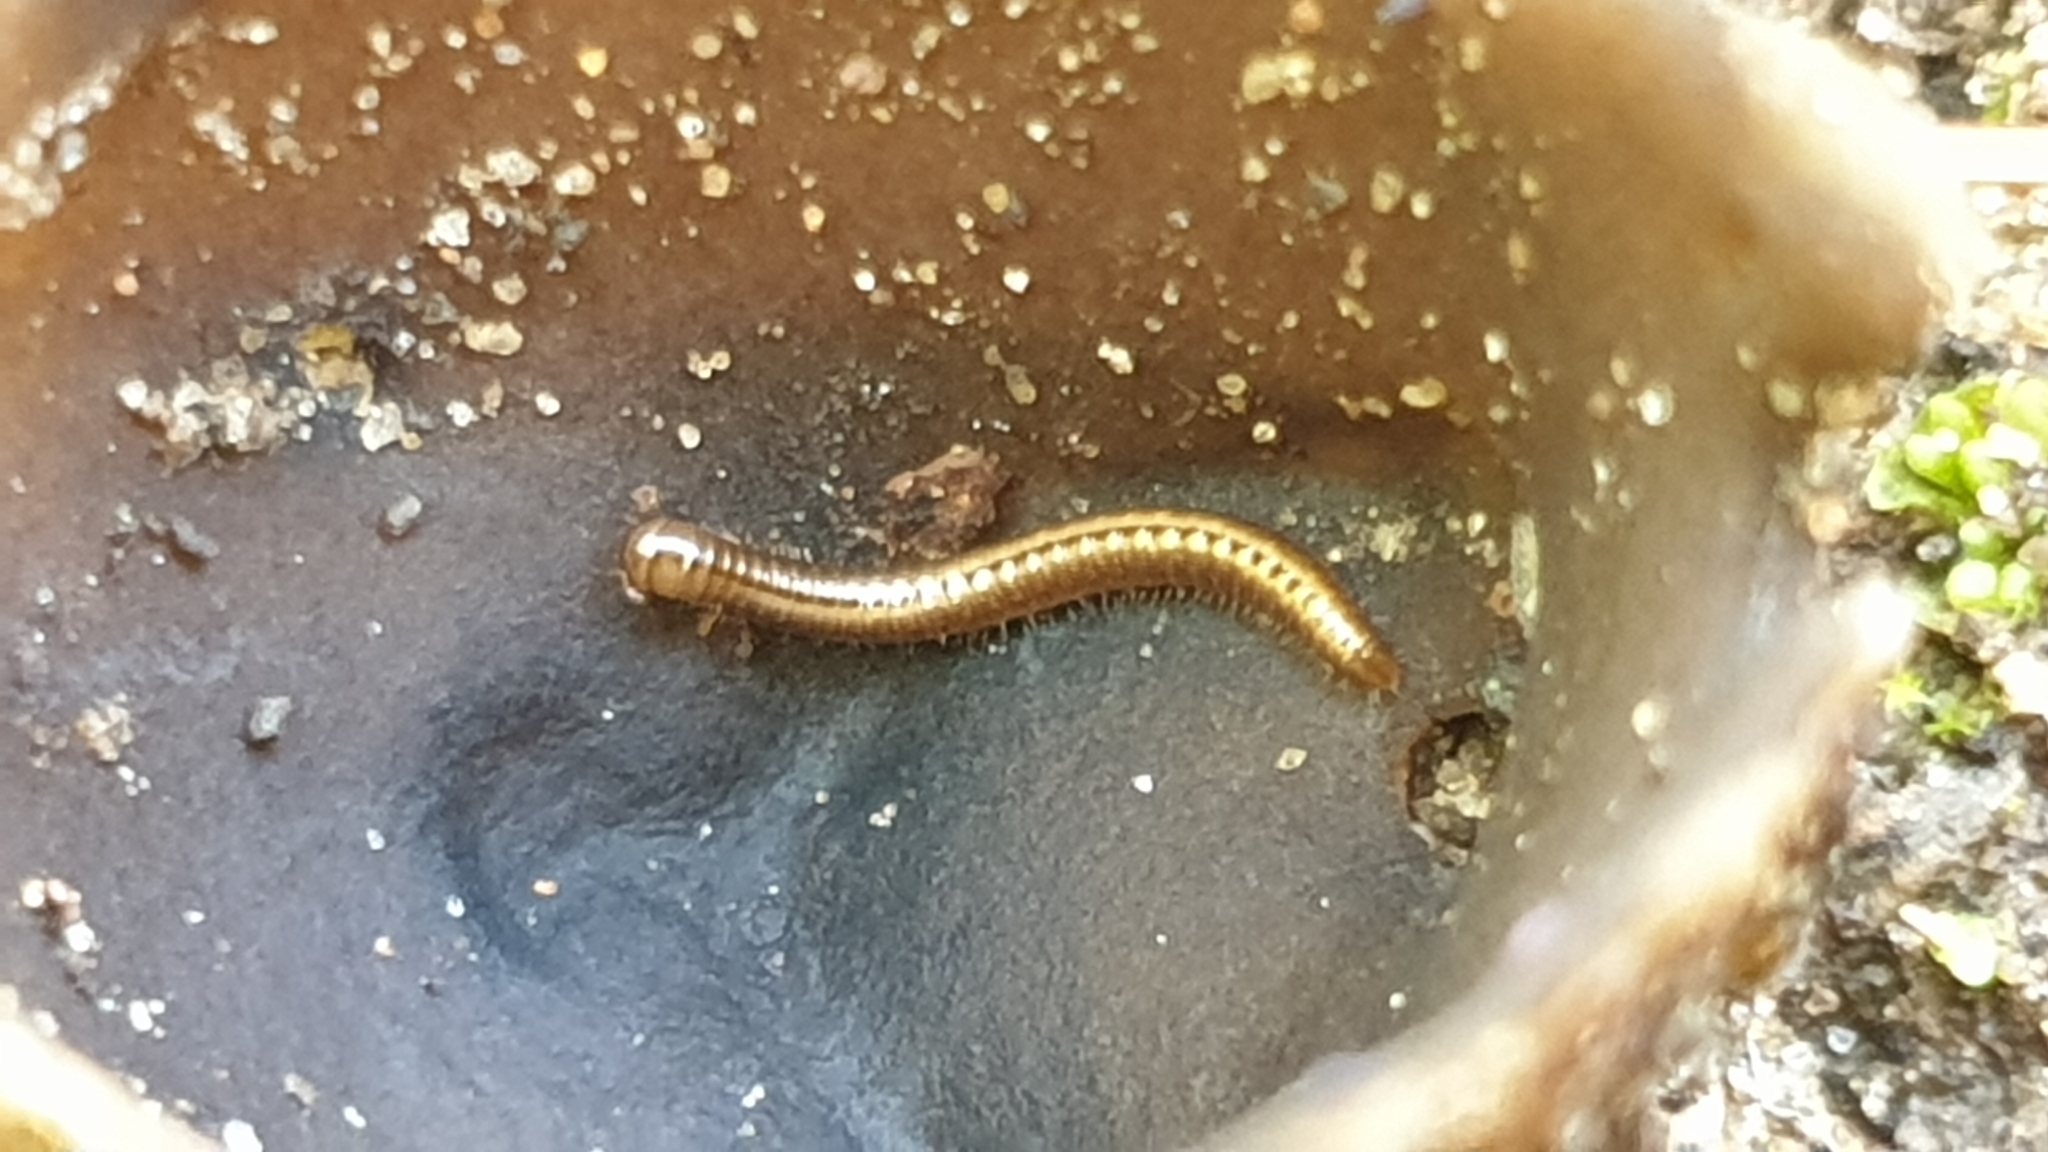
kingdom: Animalia
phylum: Arthropoda
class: Diplopoda
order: Julida
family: Julidae
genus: Brachyiulus
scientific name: Brachyiulus pusillus
